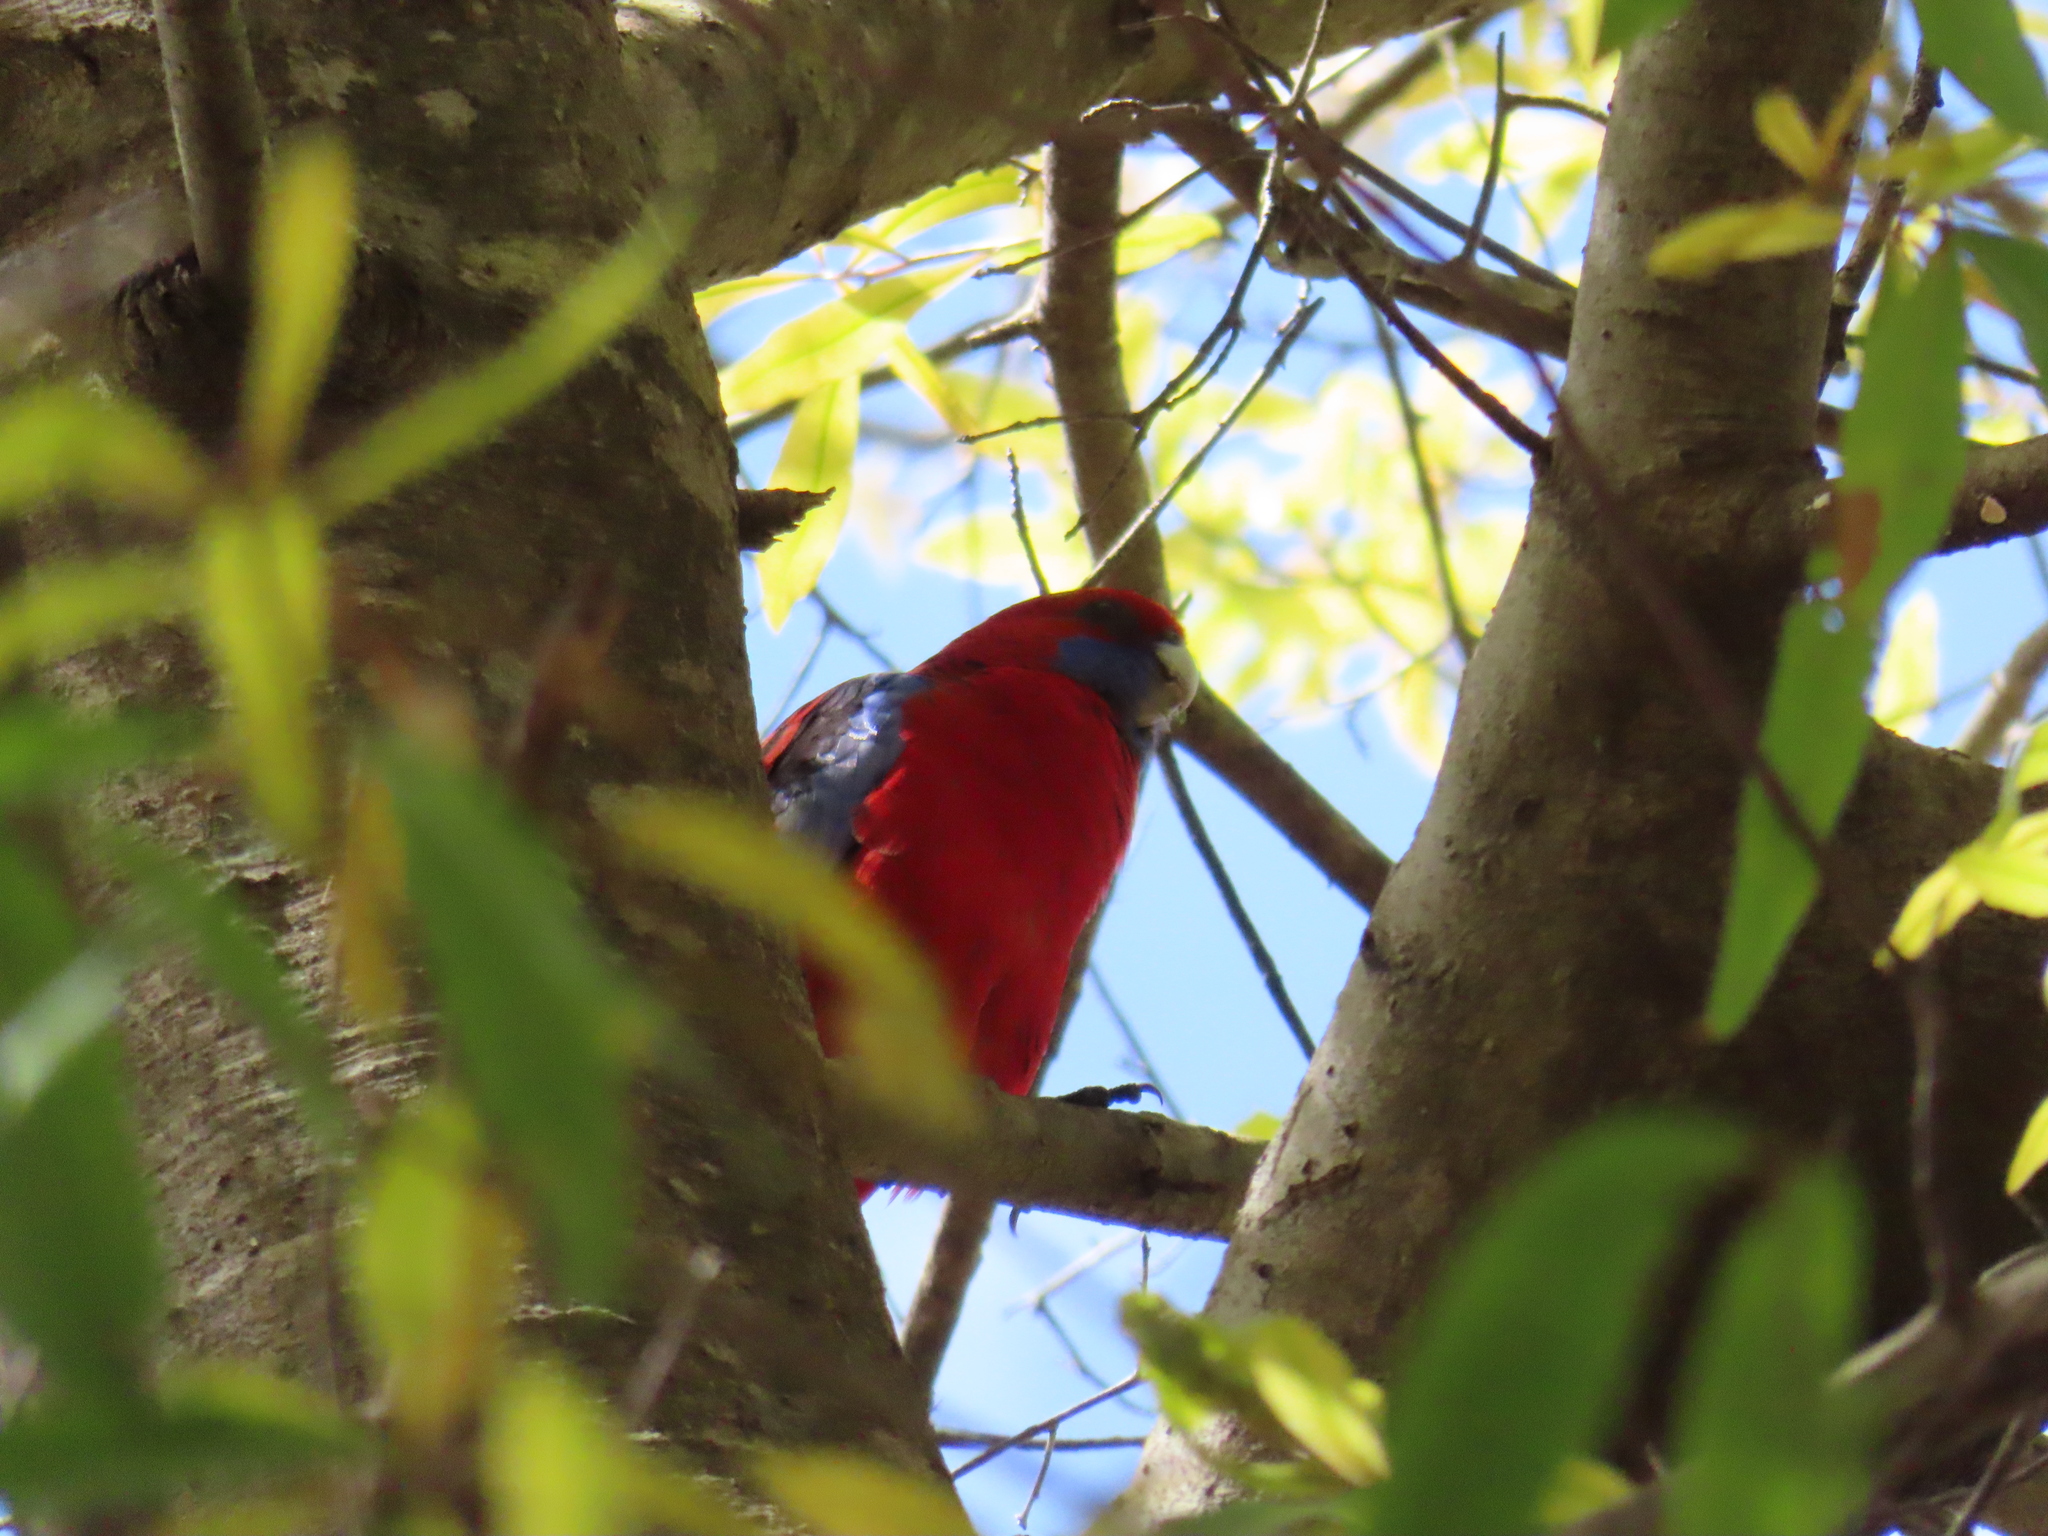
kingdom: Animalia
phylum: Chordata
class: Aves
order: Psittaciformes
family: Psittacidae
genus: Platycercus
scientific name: Platycercus elegans
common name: Crimson rosella
